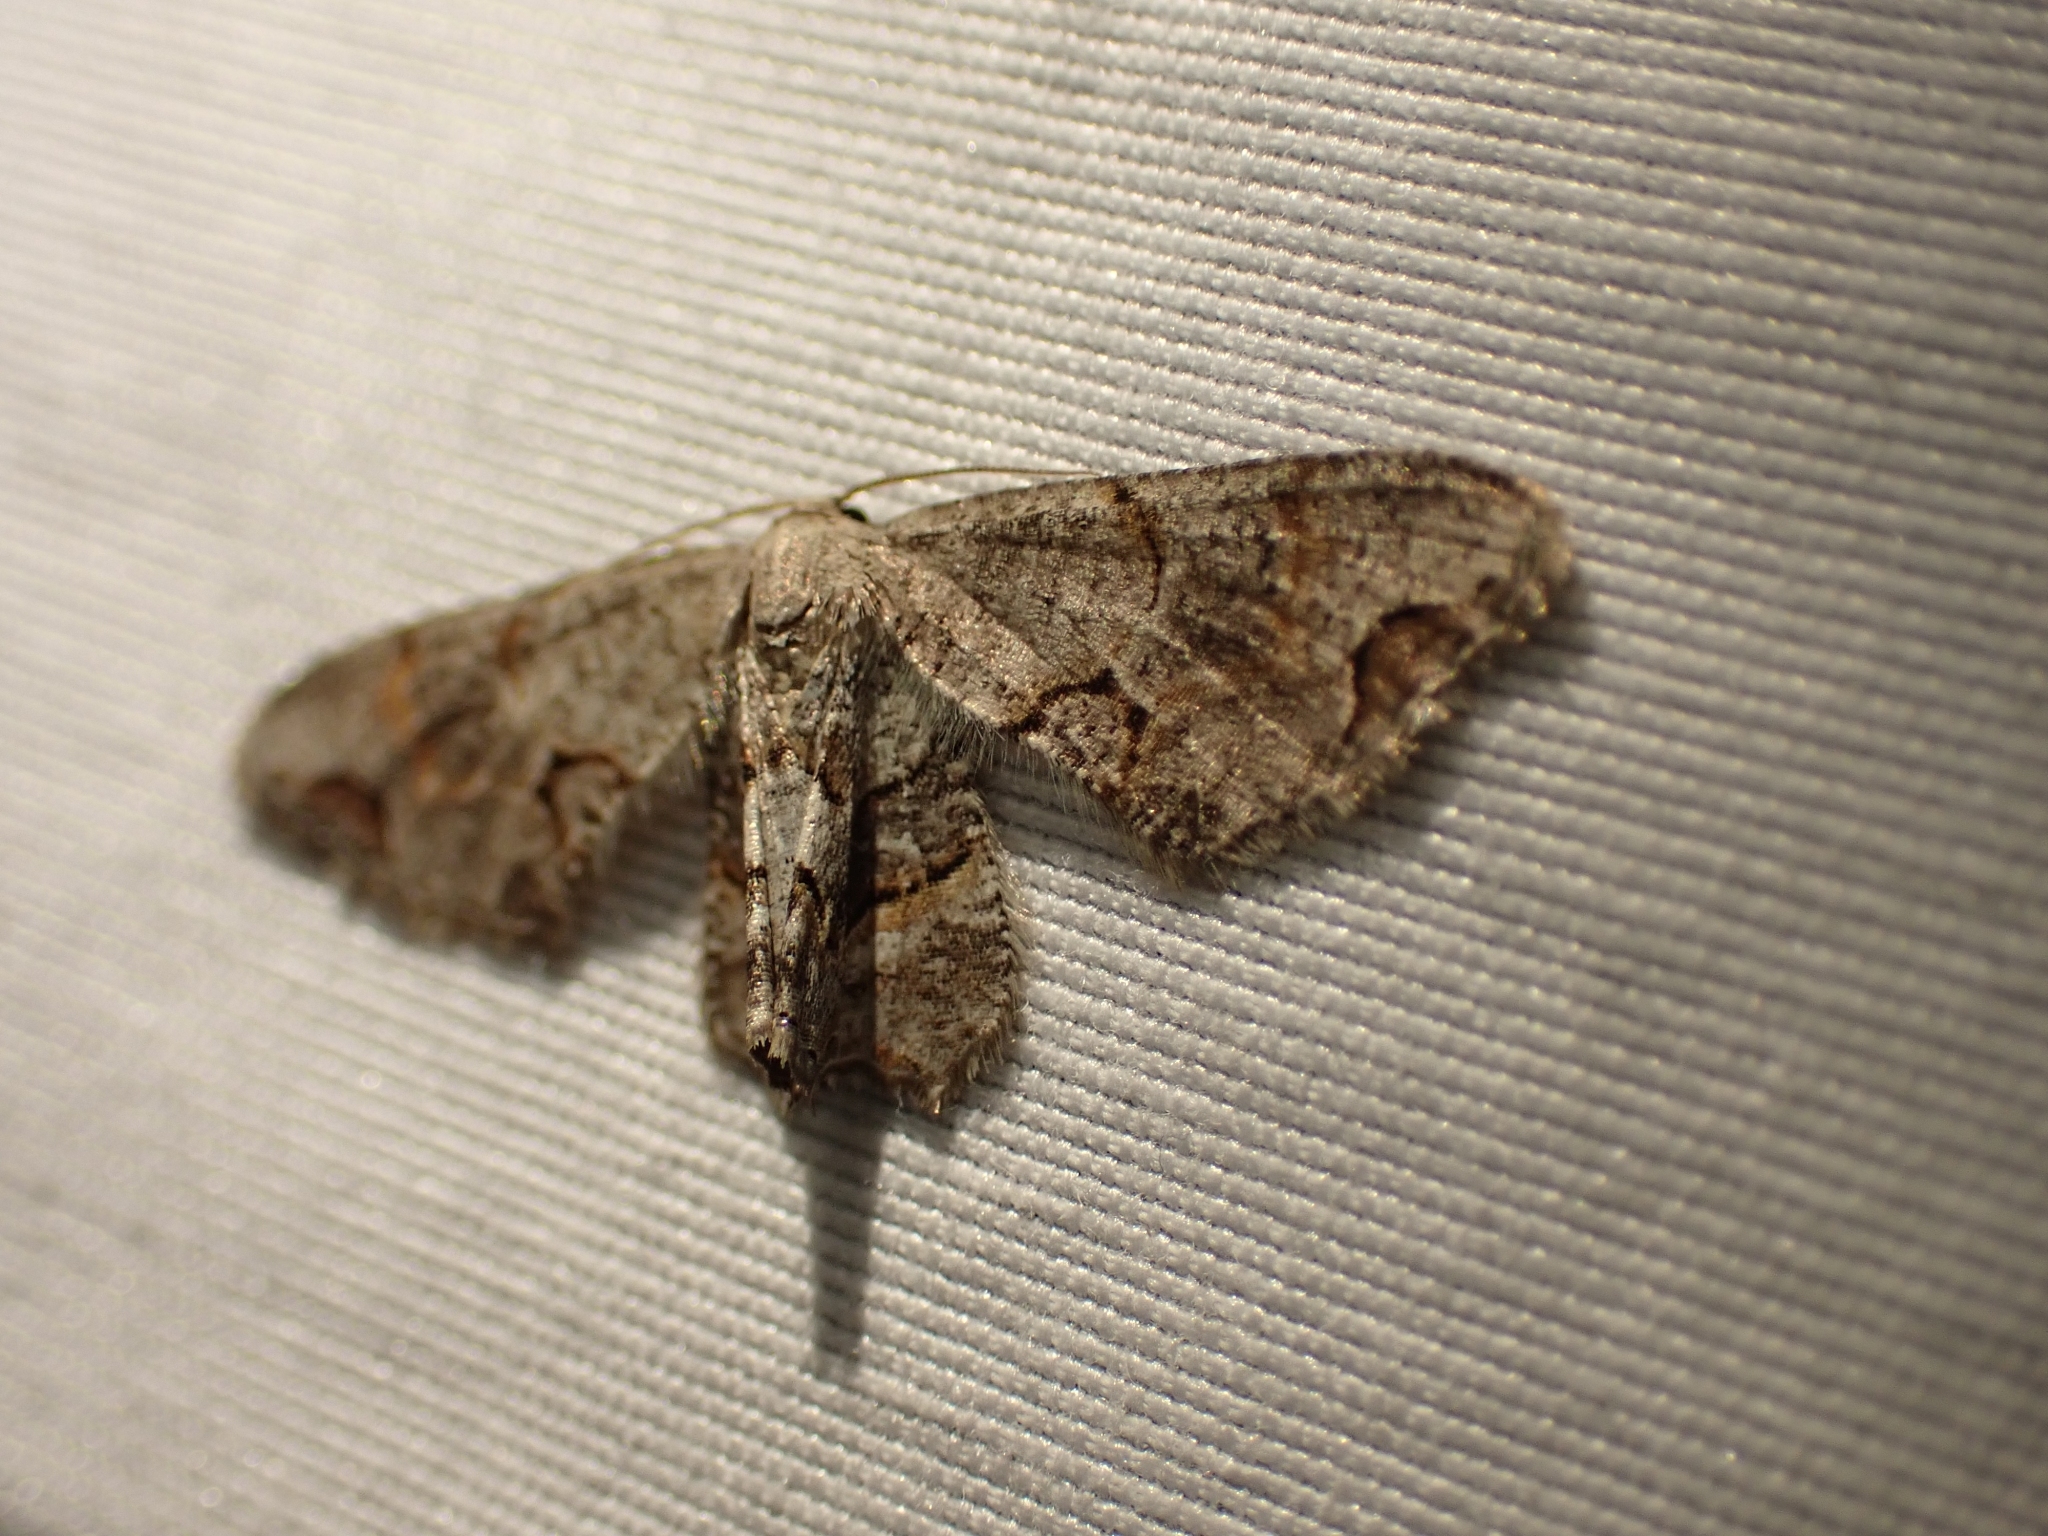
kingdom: Animalia
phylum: Arthropoda
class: Insecta
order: Lepidoptera
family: Uraniidae
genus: Epiplema
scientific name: Epiplema Callizzia amorata
